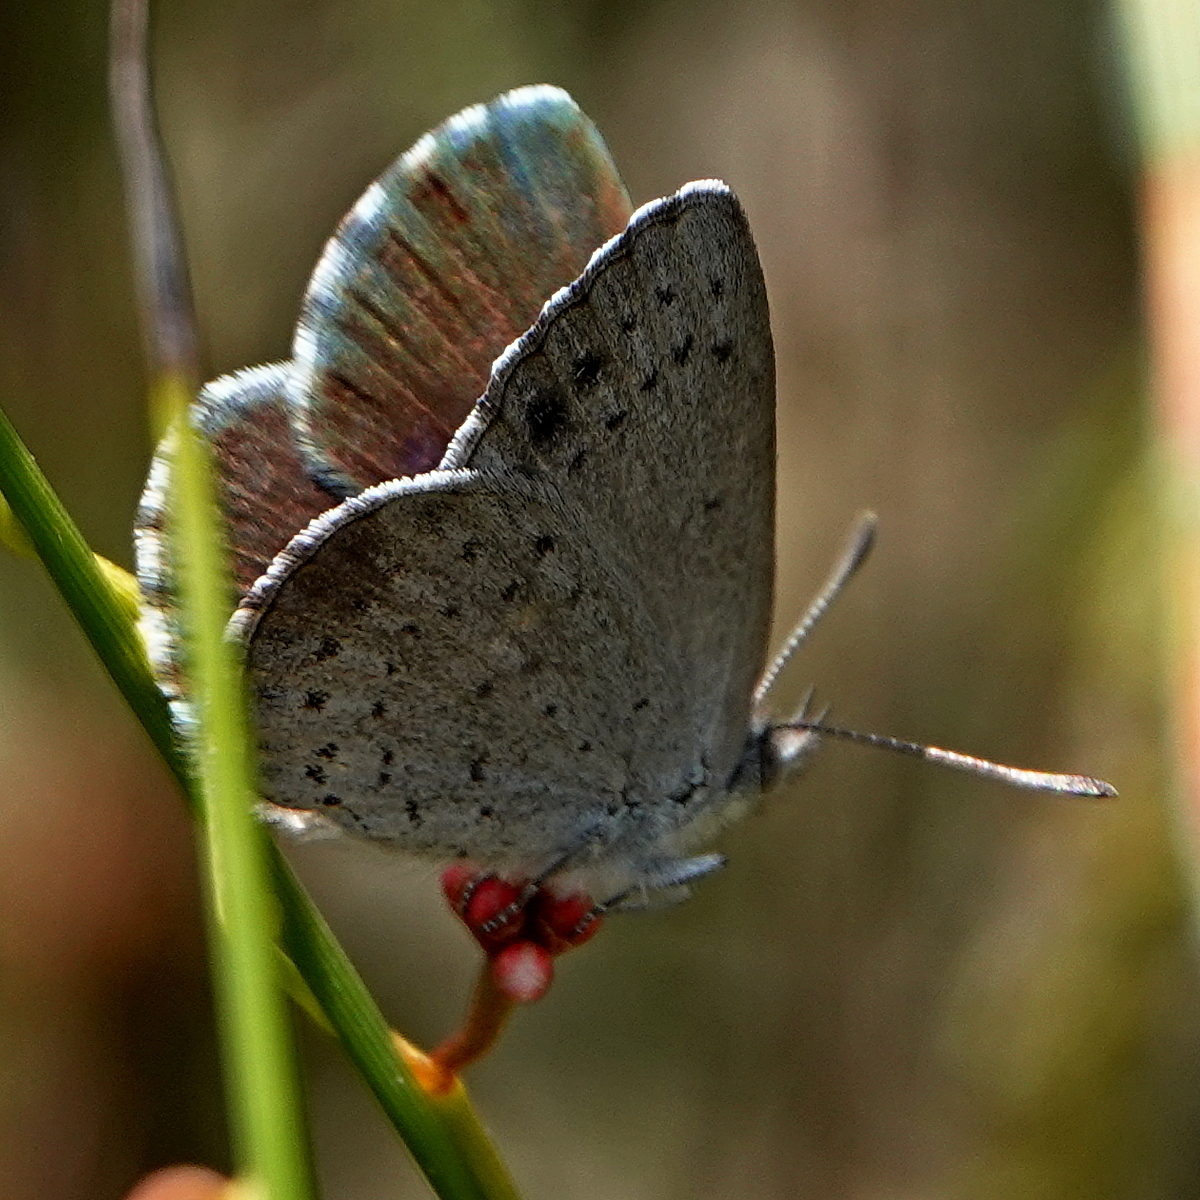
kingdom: Animalia
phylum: Arthropoda
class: Insecta
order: Lepidoptera
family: Lycaenidae
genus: Candalides
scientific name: Candalides
